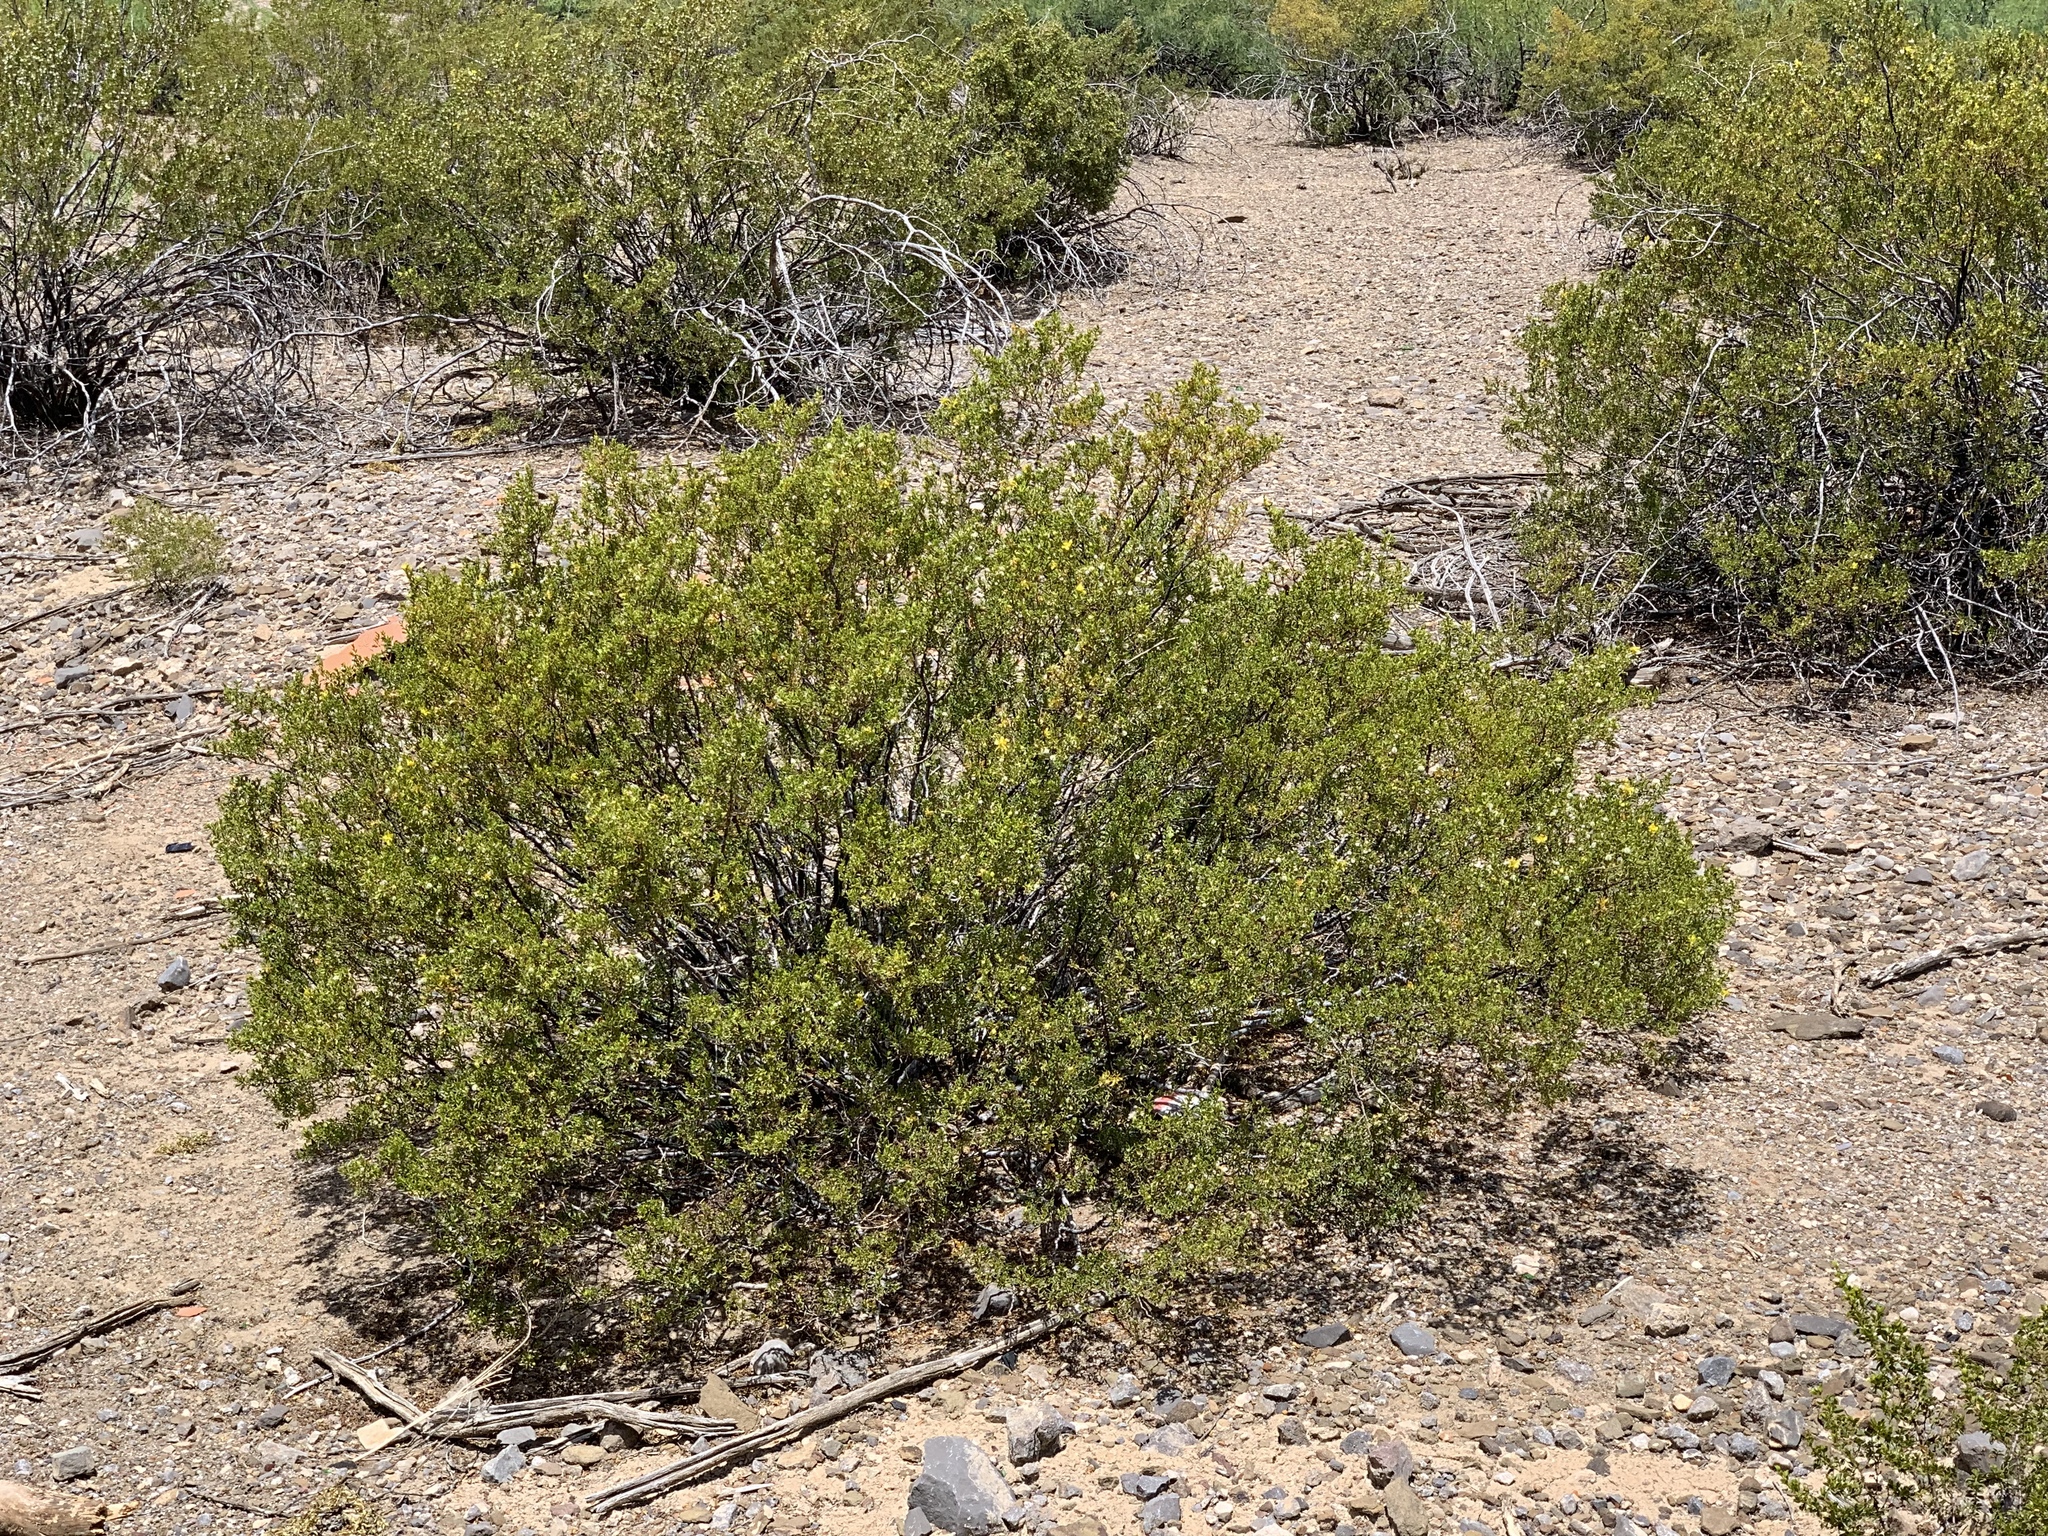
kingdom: Plantae
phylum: Tracheophyta
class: Magnoliopsida
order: Zygophyllales
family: Zygophyllaceae
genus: Larrea
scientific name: Larrea tridentata
